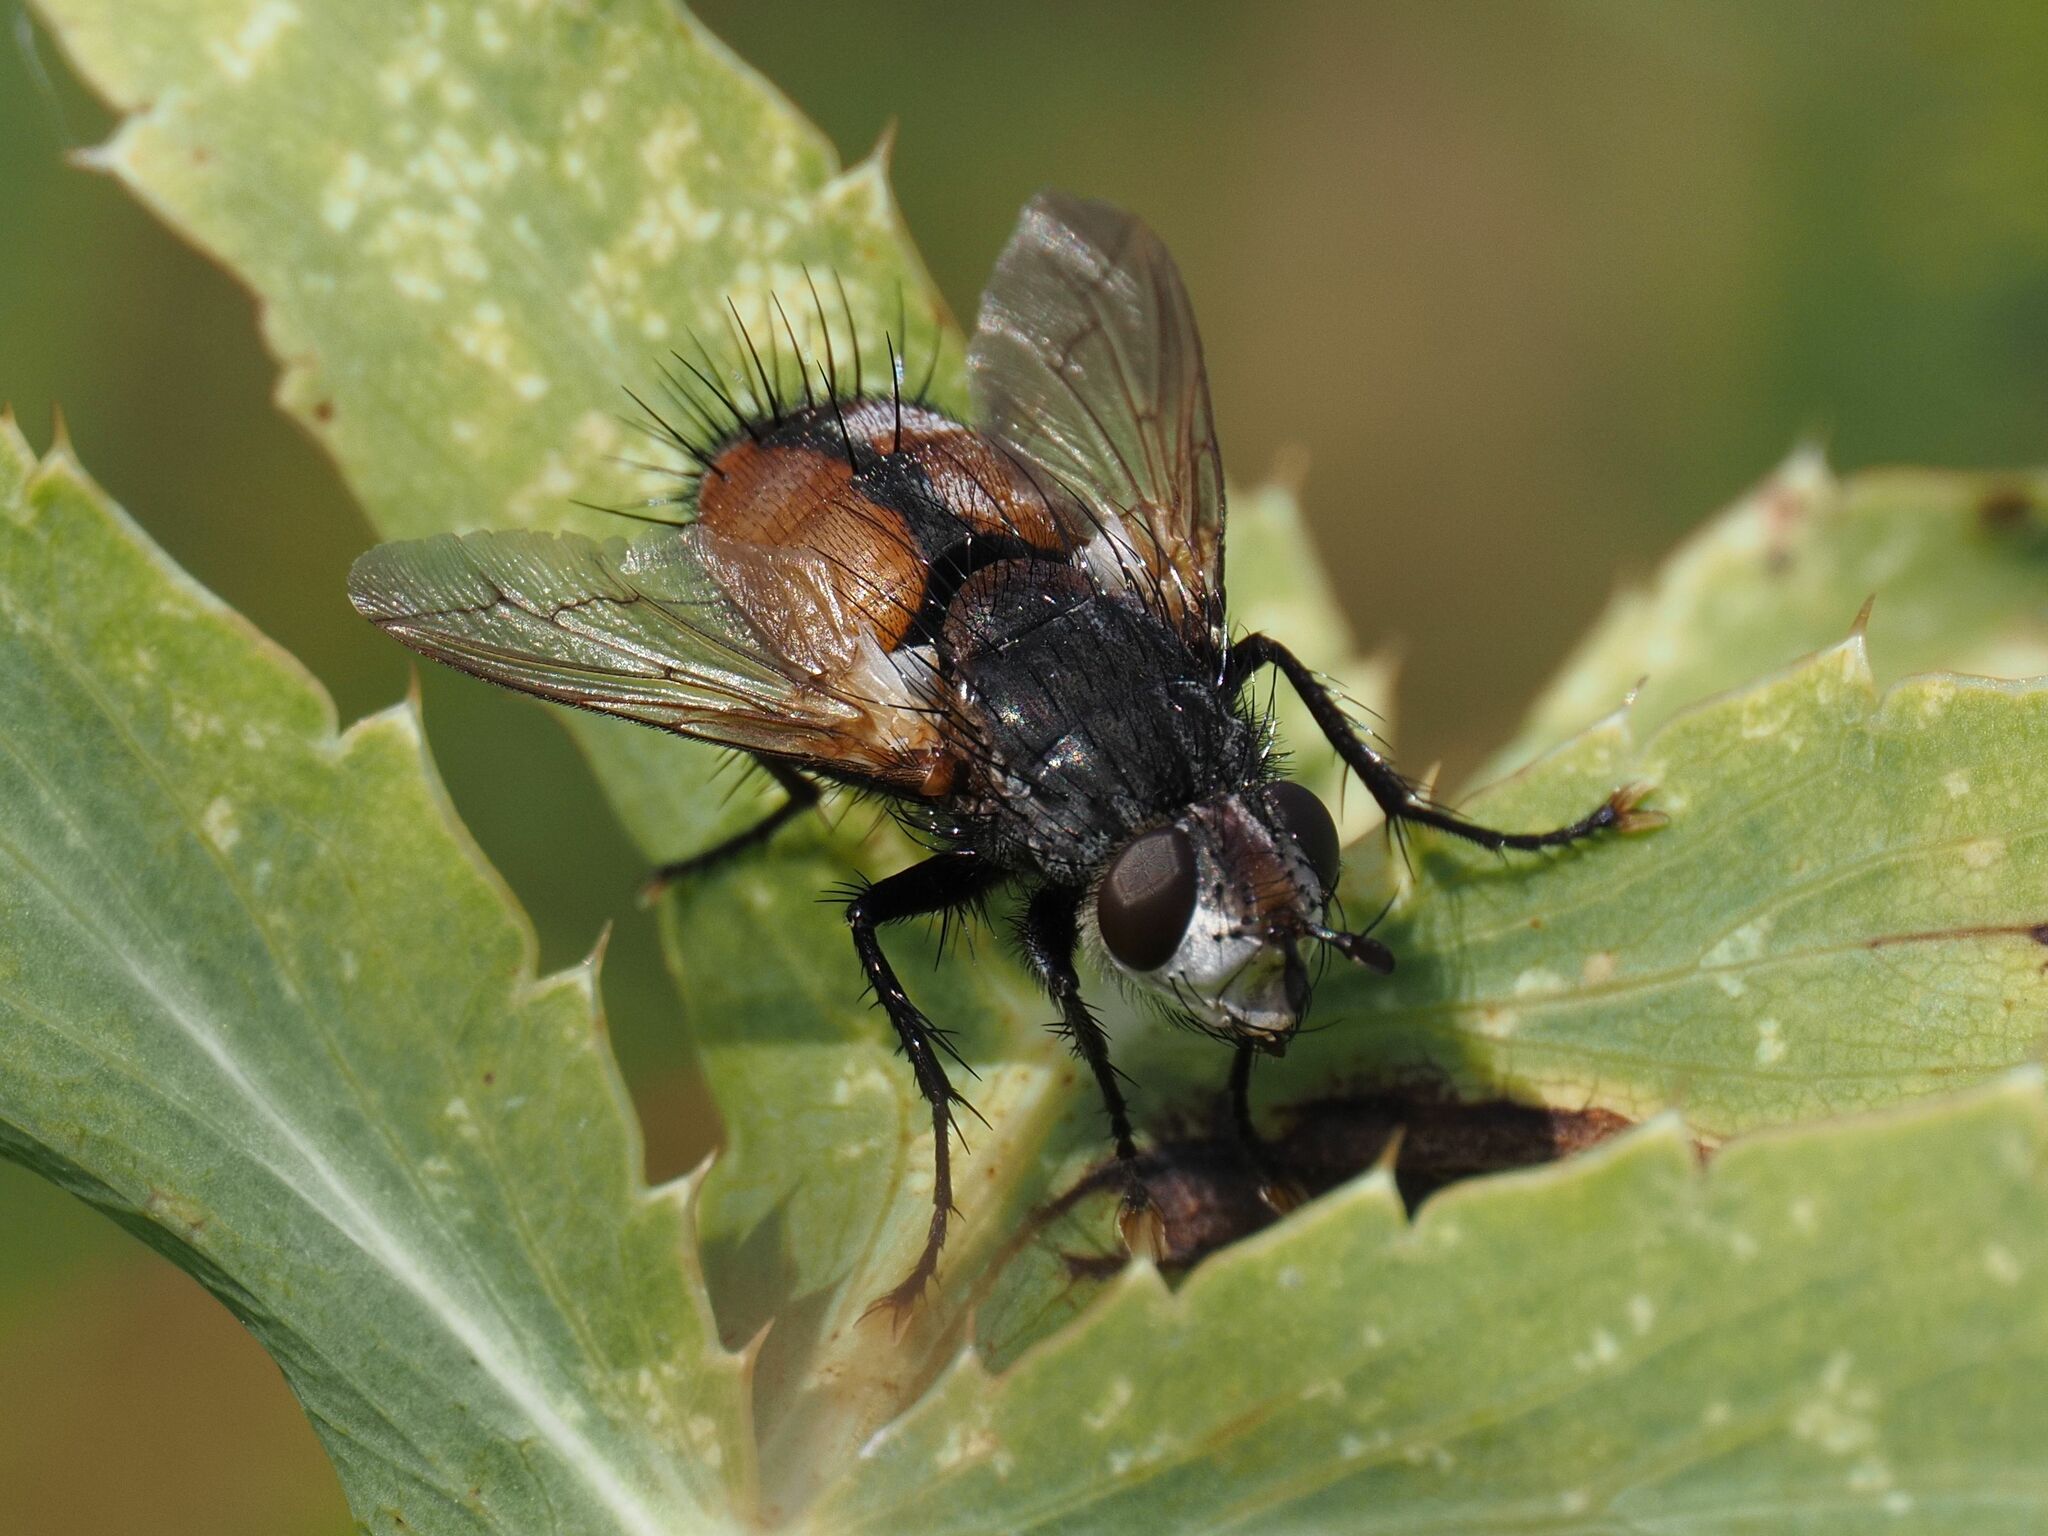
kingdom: Animalia
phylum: Arthropoda
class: Insecta
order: Diptera
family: Tachinidae
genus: Peleteria
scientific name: Peleteria rubescens
